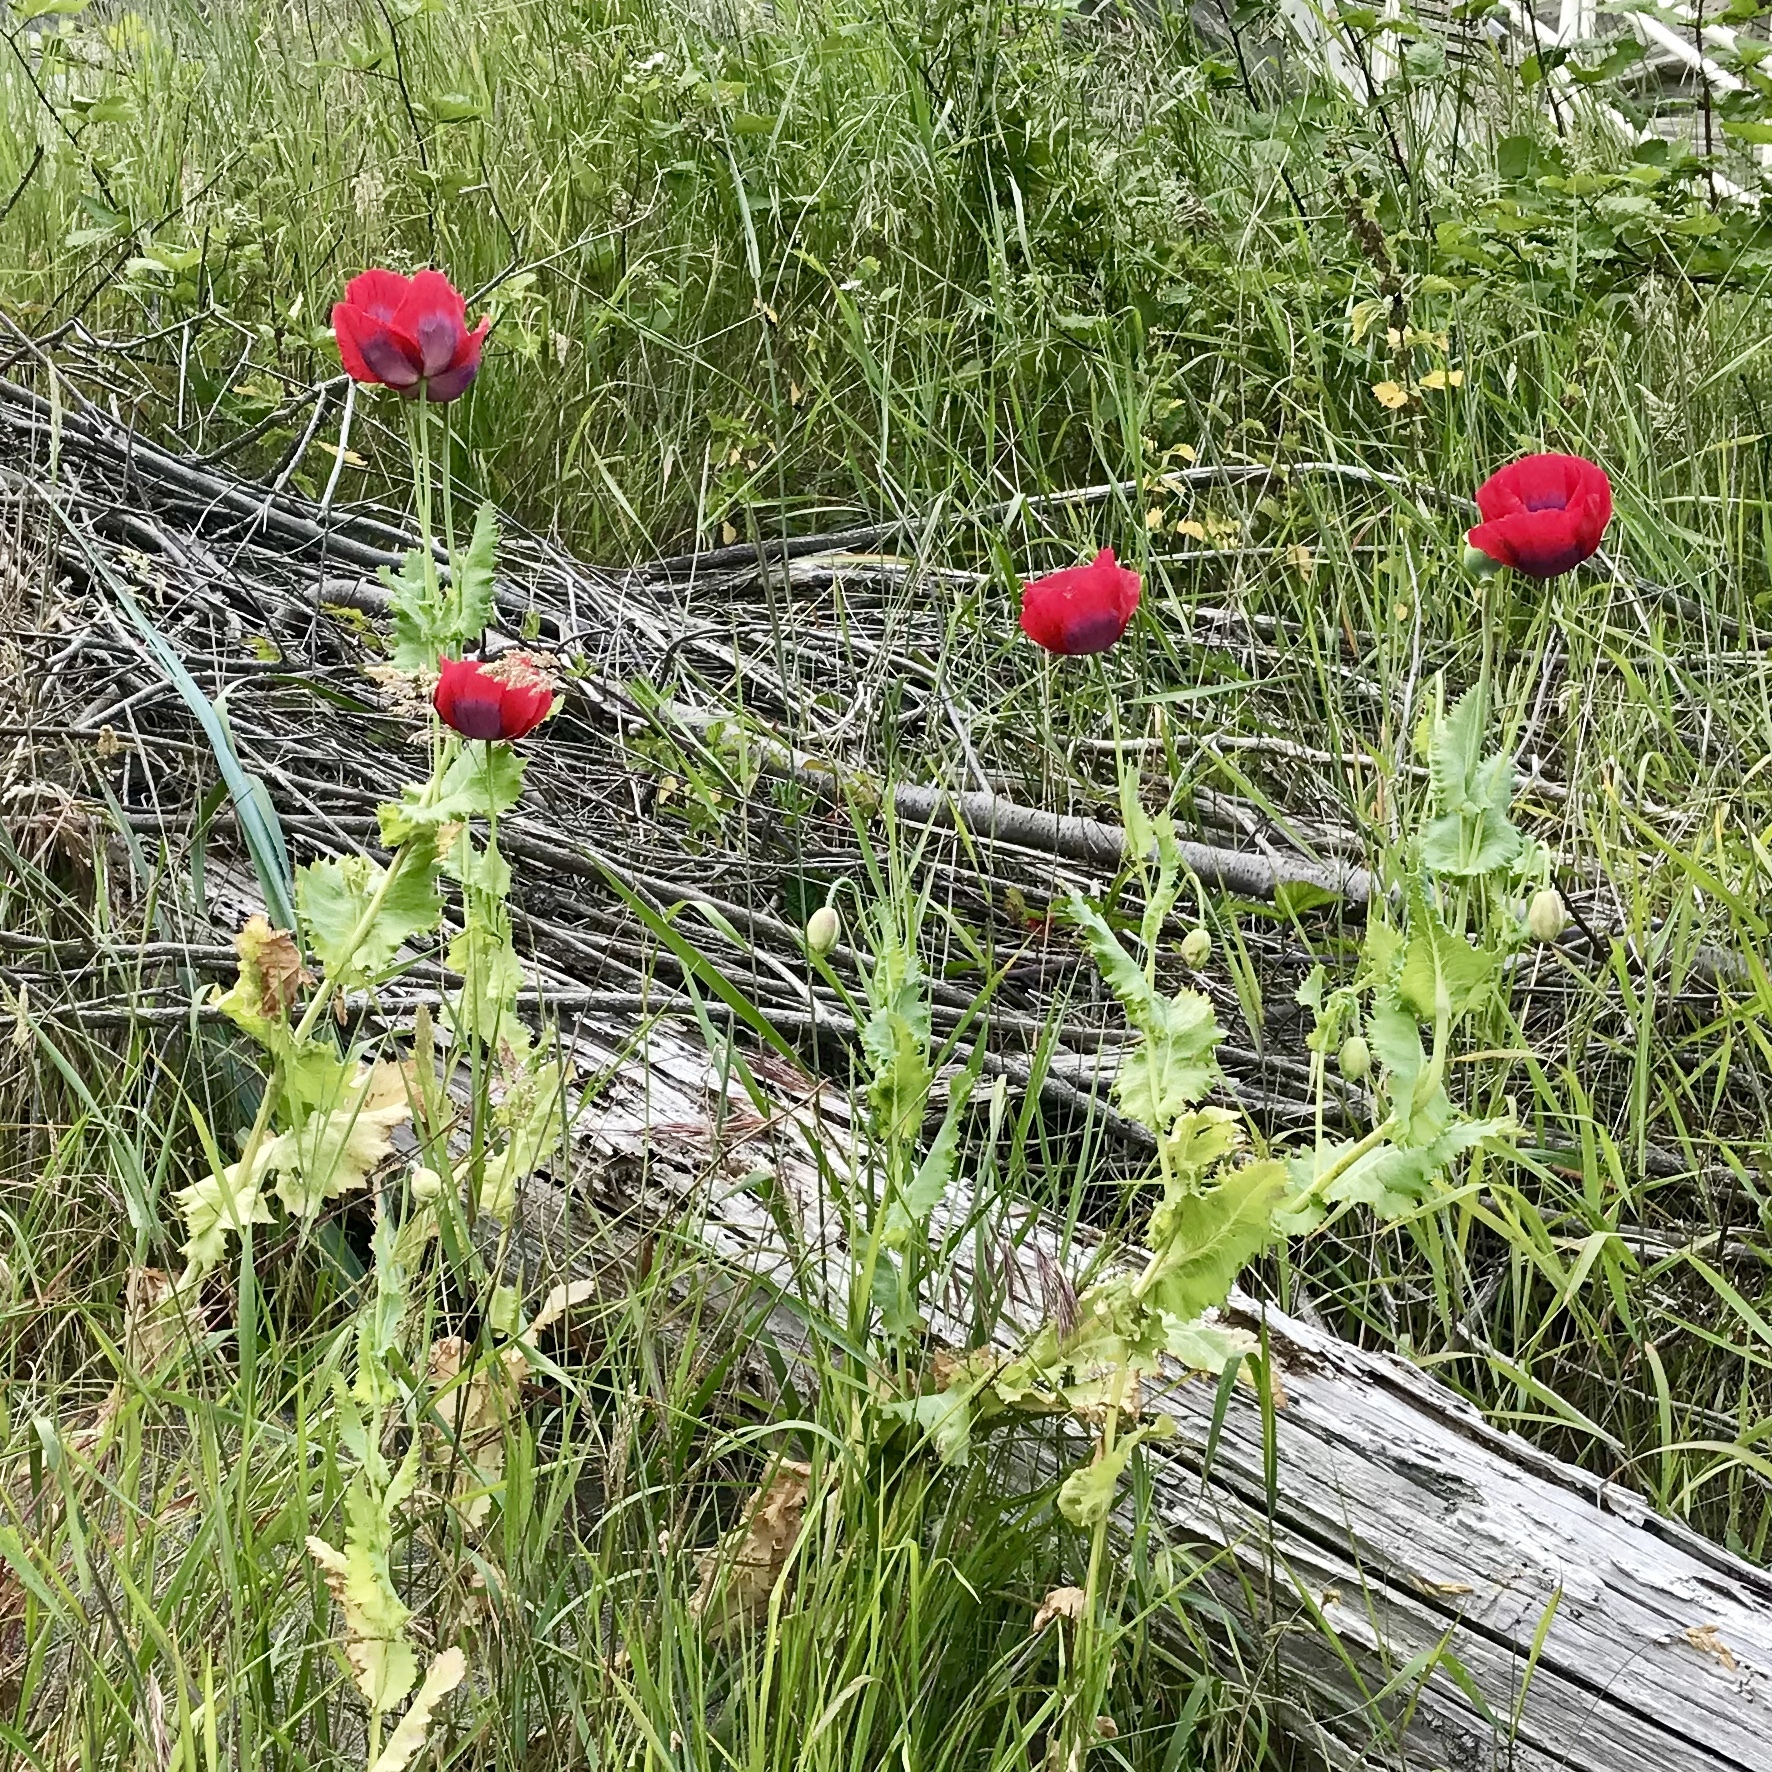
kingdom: Plantae
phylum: Tracheophyta
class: Magnoliopsida
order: Ranunculales
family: Papaveraceae
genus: Papaver
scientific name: Papaver somniferum
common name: Opium poppy
